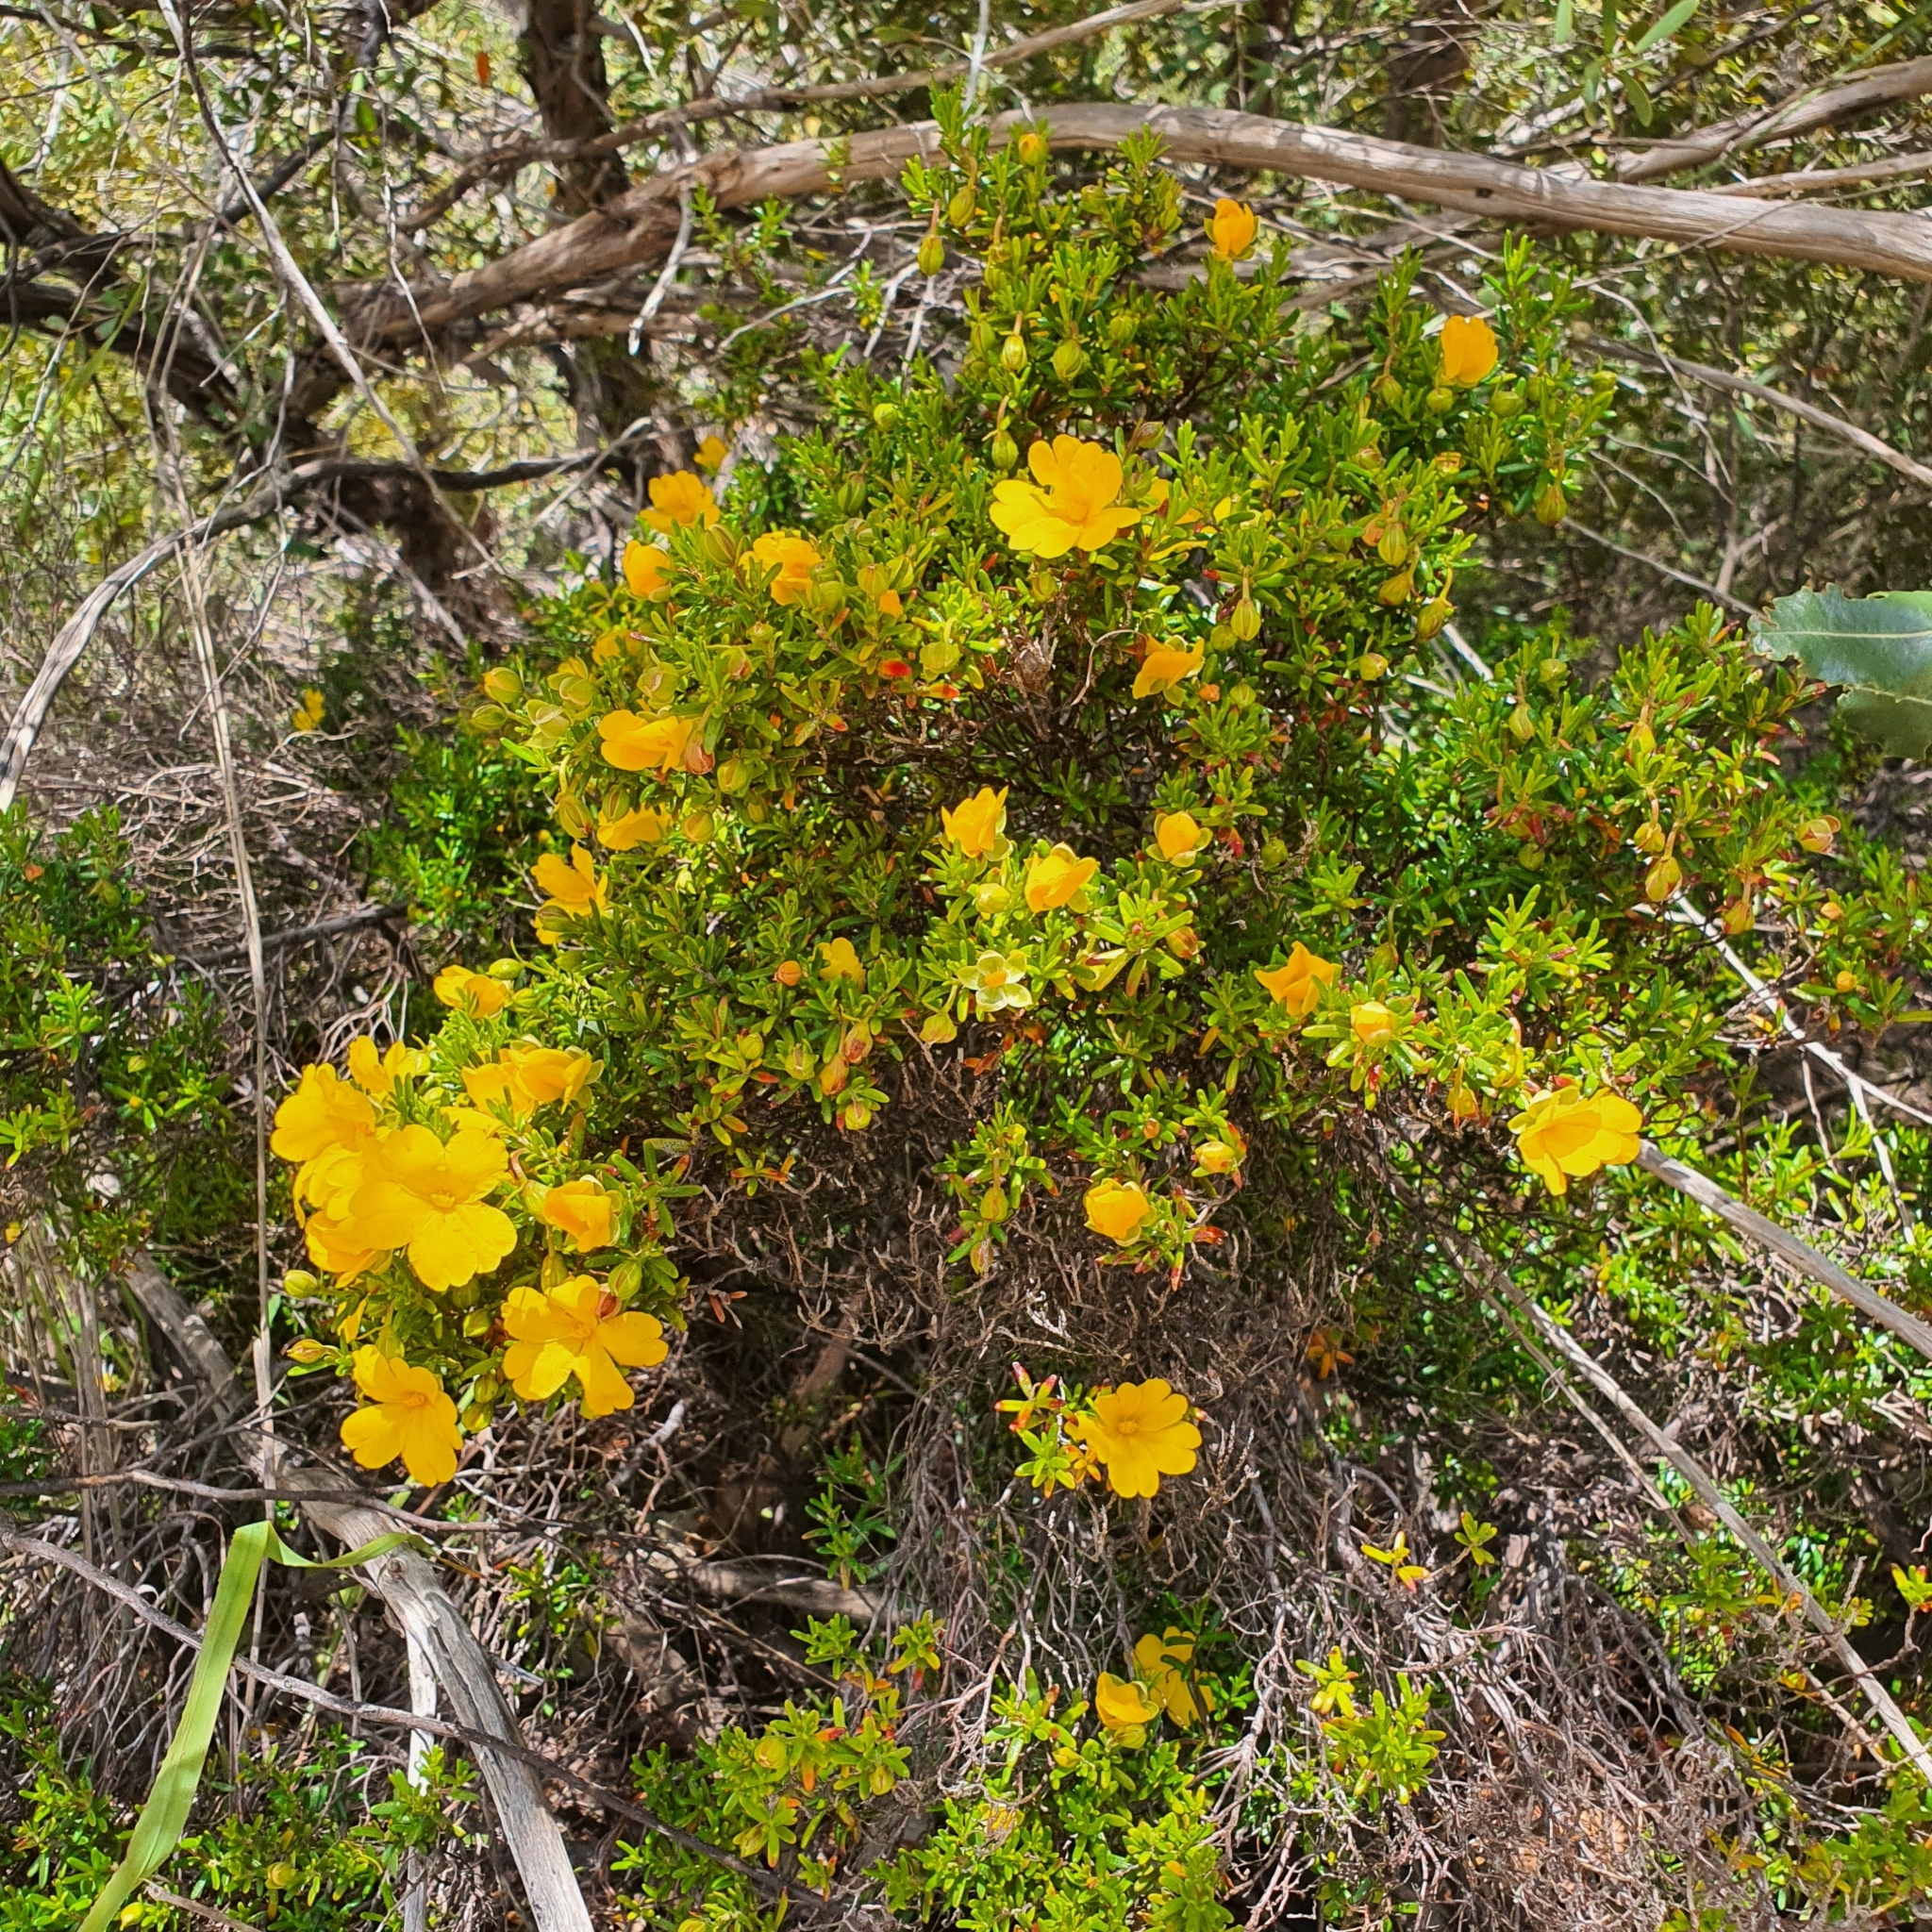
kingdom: Plantae
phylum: Tracheophyta
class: Magnoliopsida
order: Dilleniales
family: Dilleniaceae
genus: Hibbertia
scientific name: Hibbertia hypericoides
